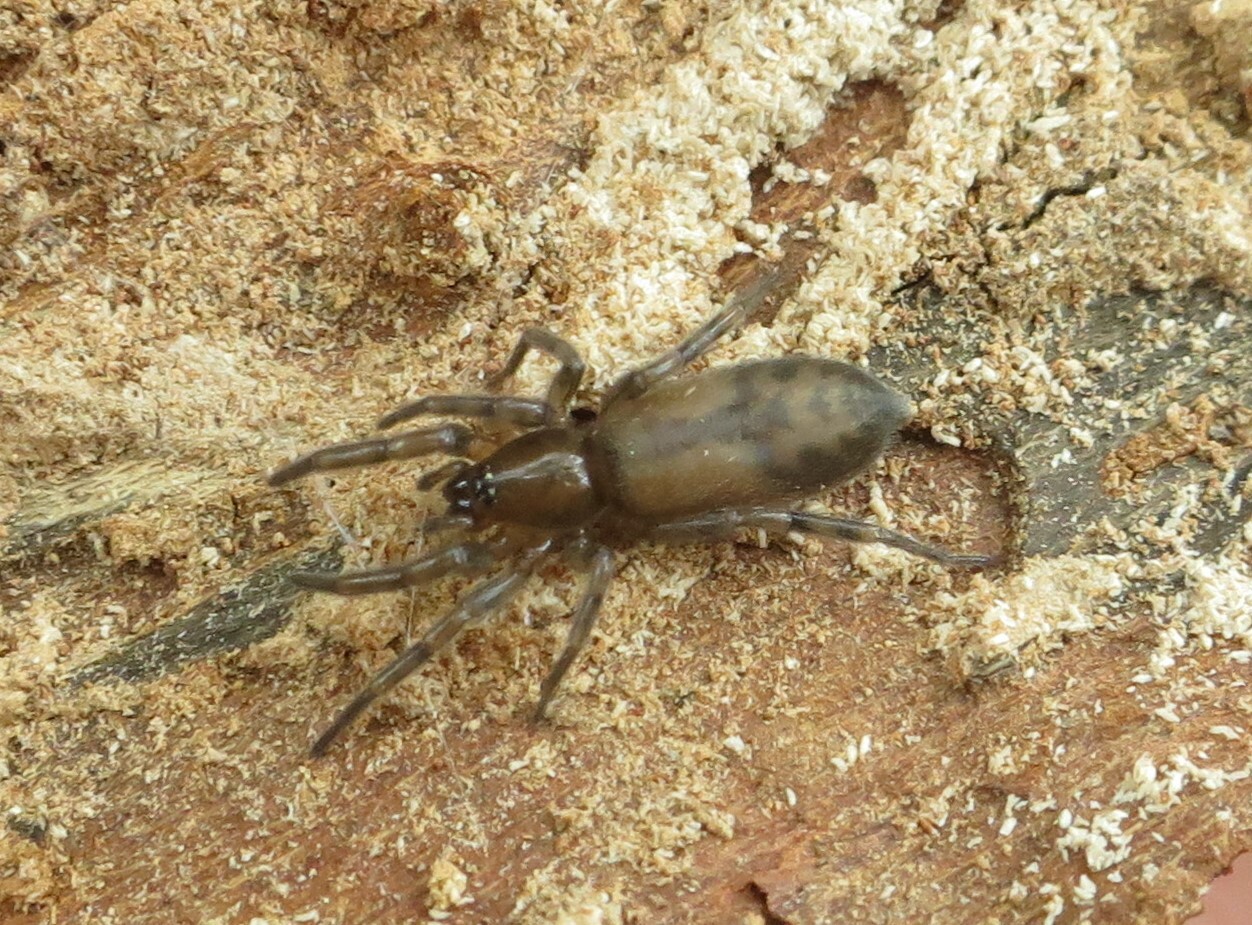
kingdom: Animalia
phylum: Arthropoda
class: Arachnida
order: Araneae
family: Gnaphosidae
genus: Intruda
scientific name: Intruda signata
